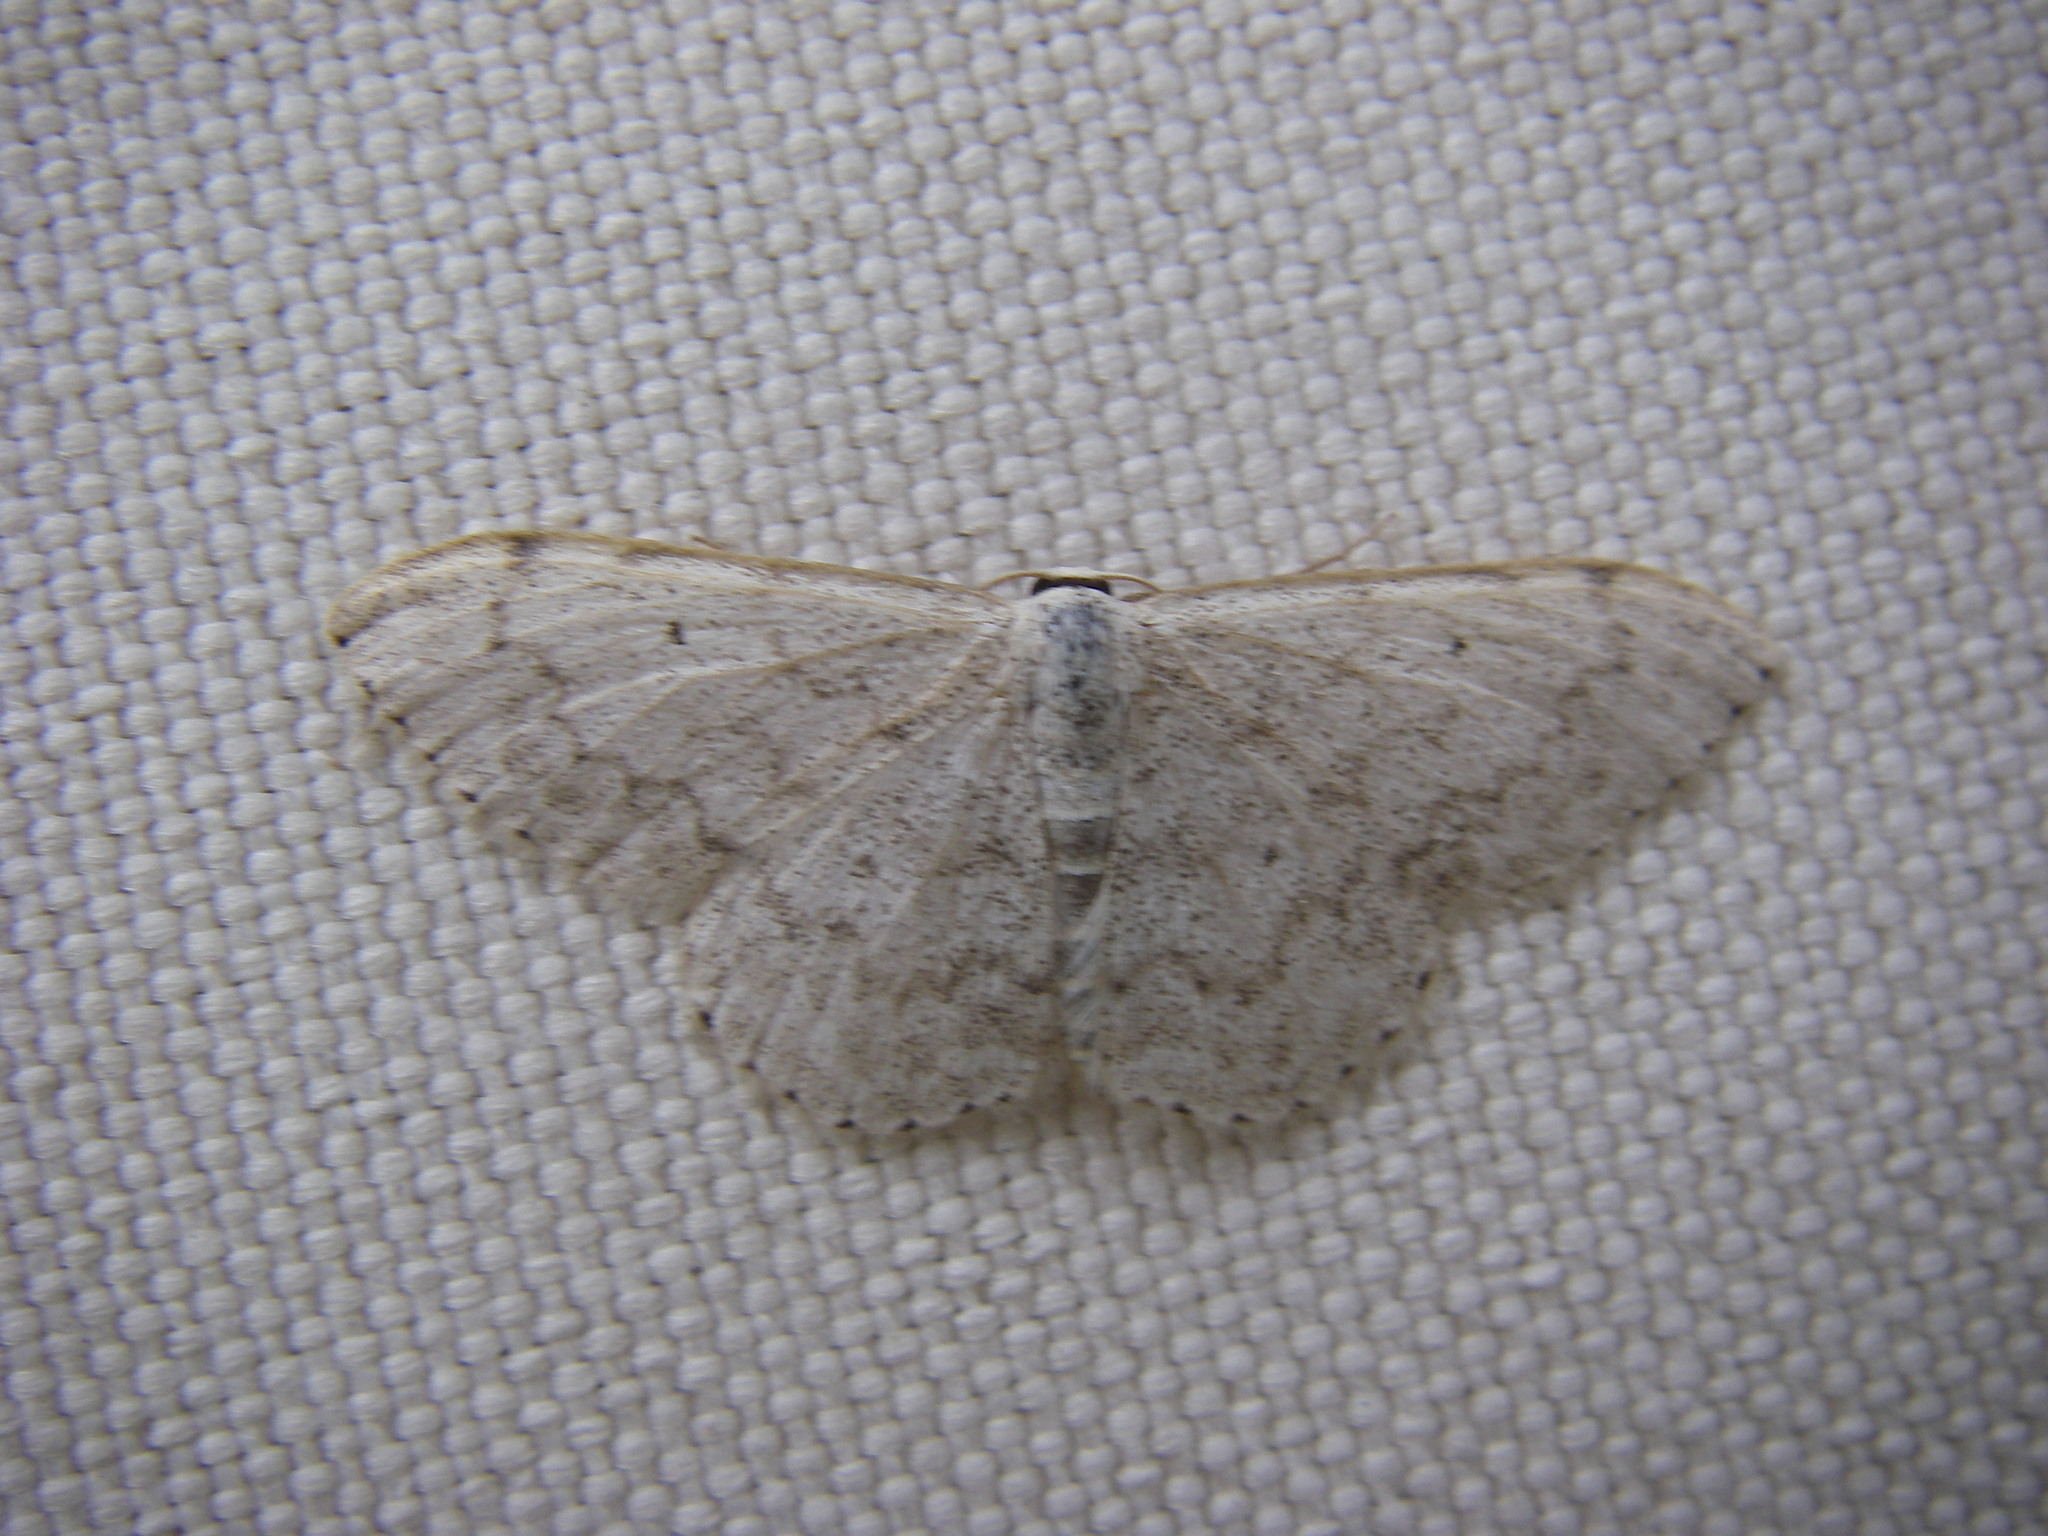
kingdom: Animalia
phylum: Arthropoda
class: Insecta
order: Lepidoptera
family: Geometridae
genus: Scopula
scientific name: Scopula marginepunctata
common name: Mullein wave
